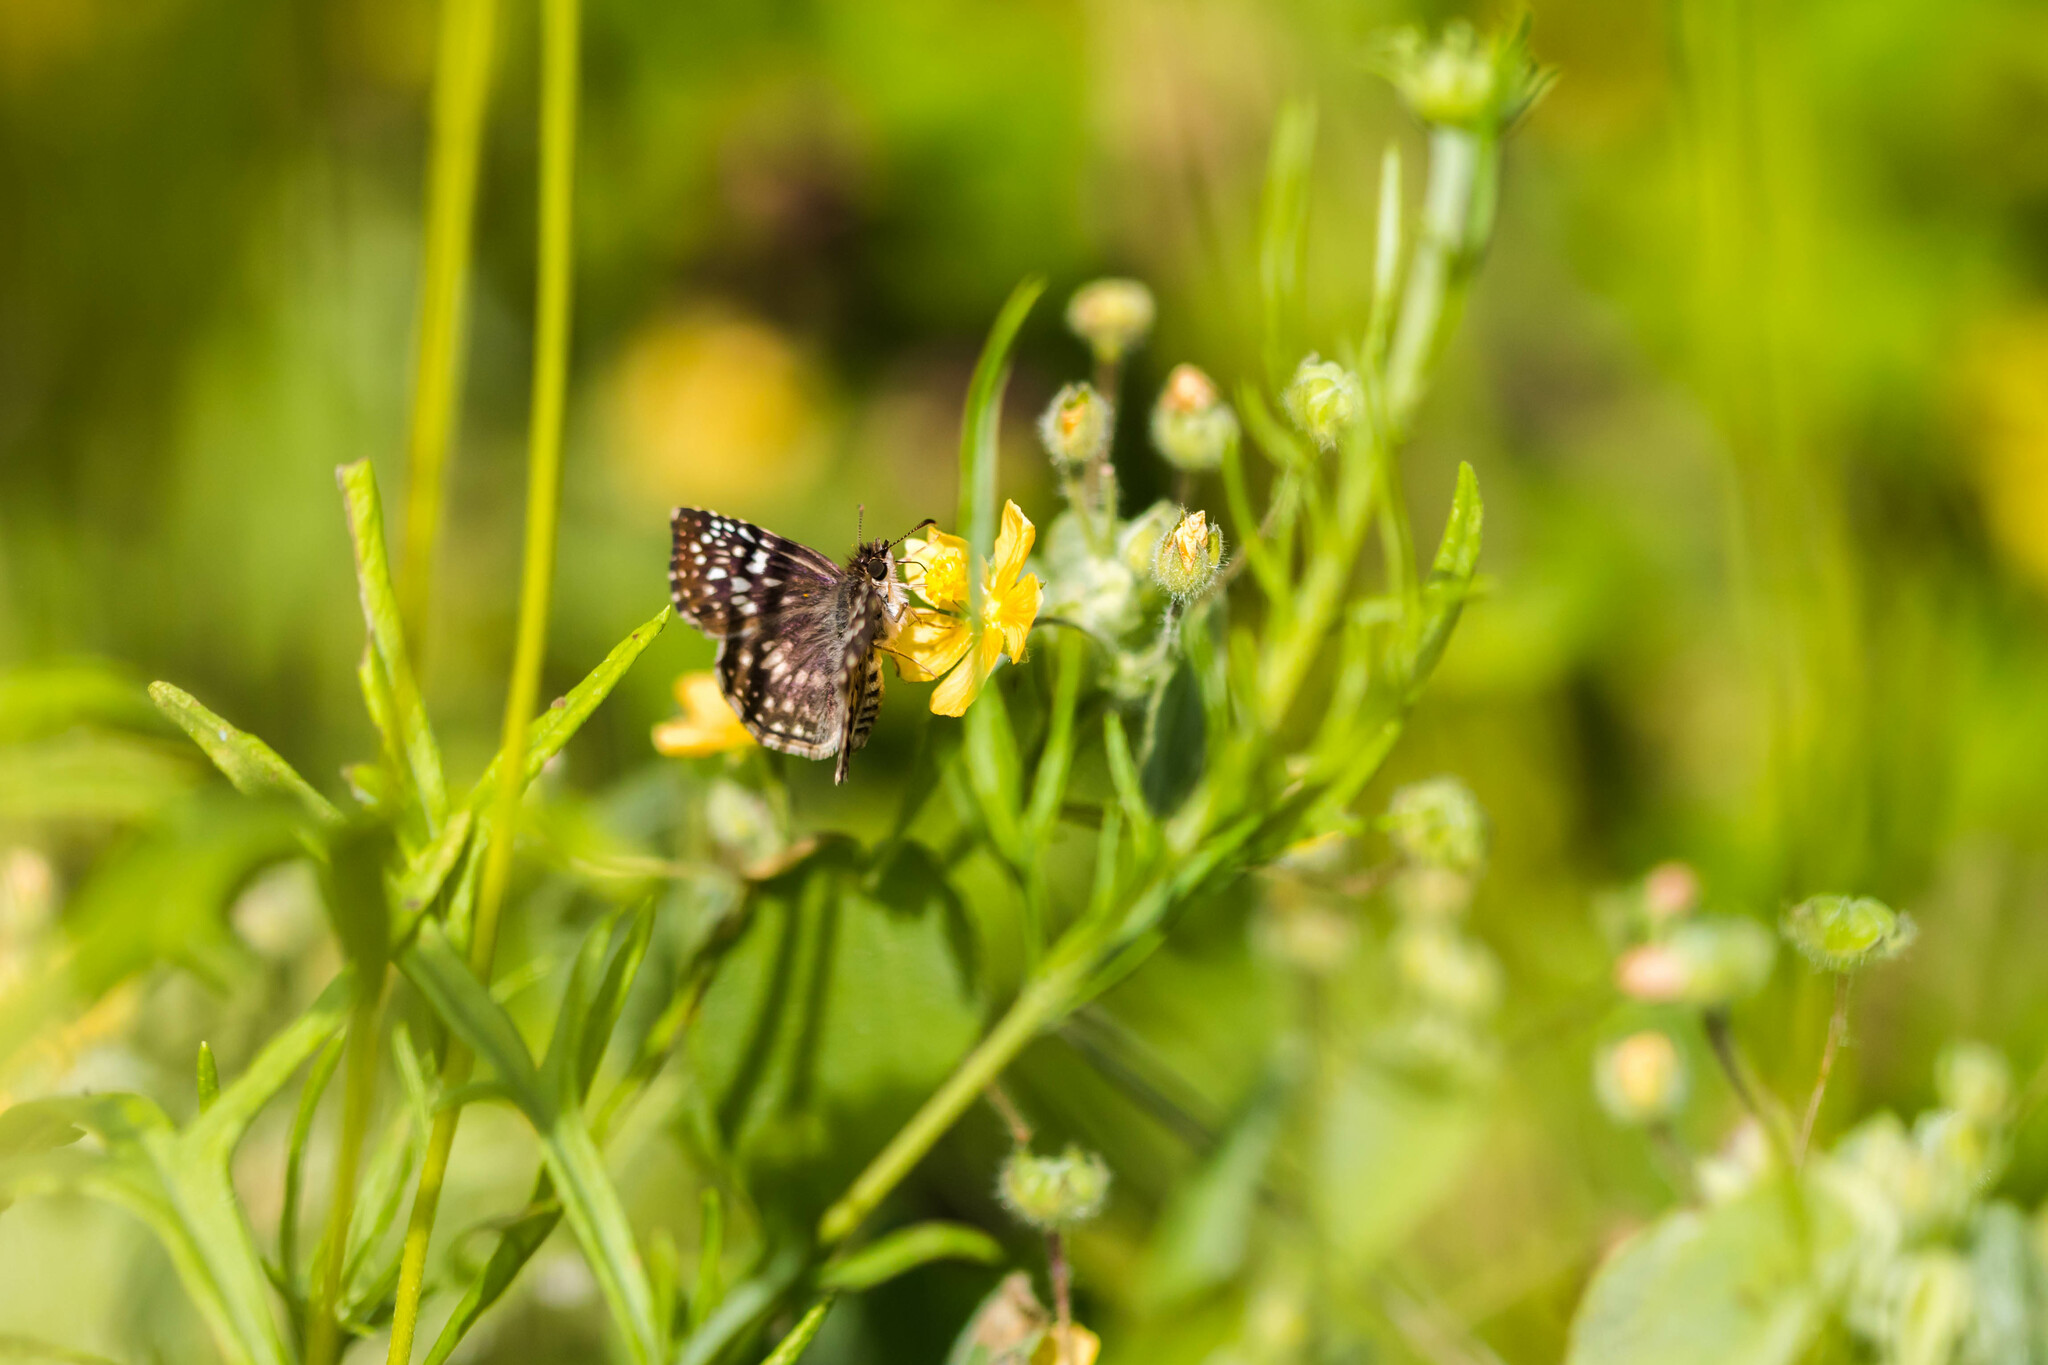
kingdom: Animalia
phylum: Arthropoda
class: Insecta
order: Lepidoptera
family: Hesperiidae
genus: Pyrgus
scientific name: Pyrgus oileus
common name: Tropical checkered-skipper
